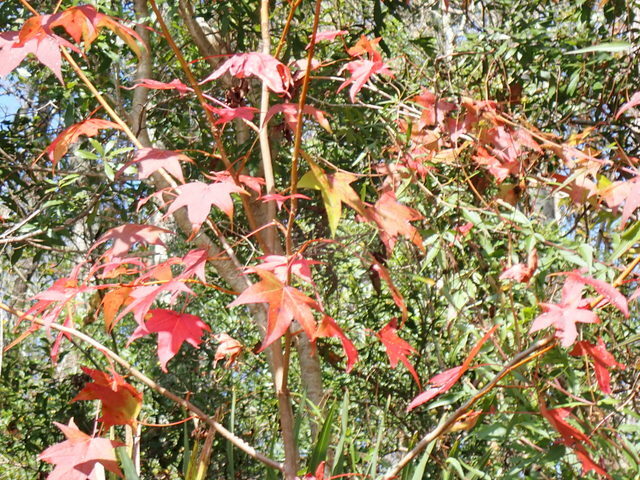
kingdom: Plantae
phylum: Tracheophyta
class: Magnoliopsida
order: Saxifragales
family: Altingiaceae
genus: Liquidambar
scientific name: Liquidambar styraciflua
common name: Sweet gum
